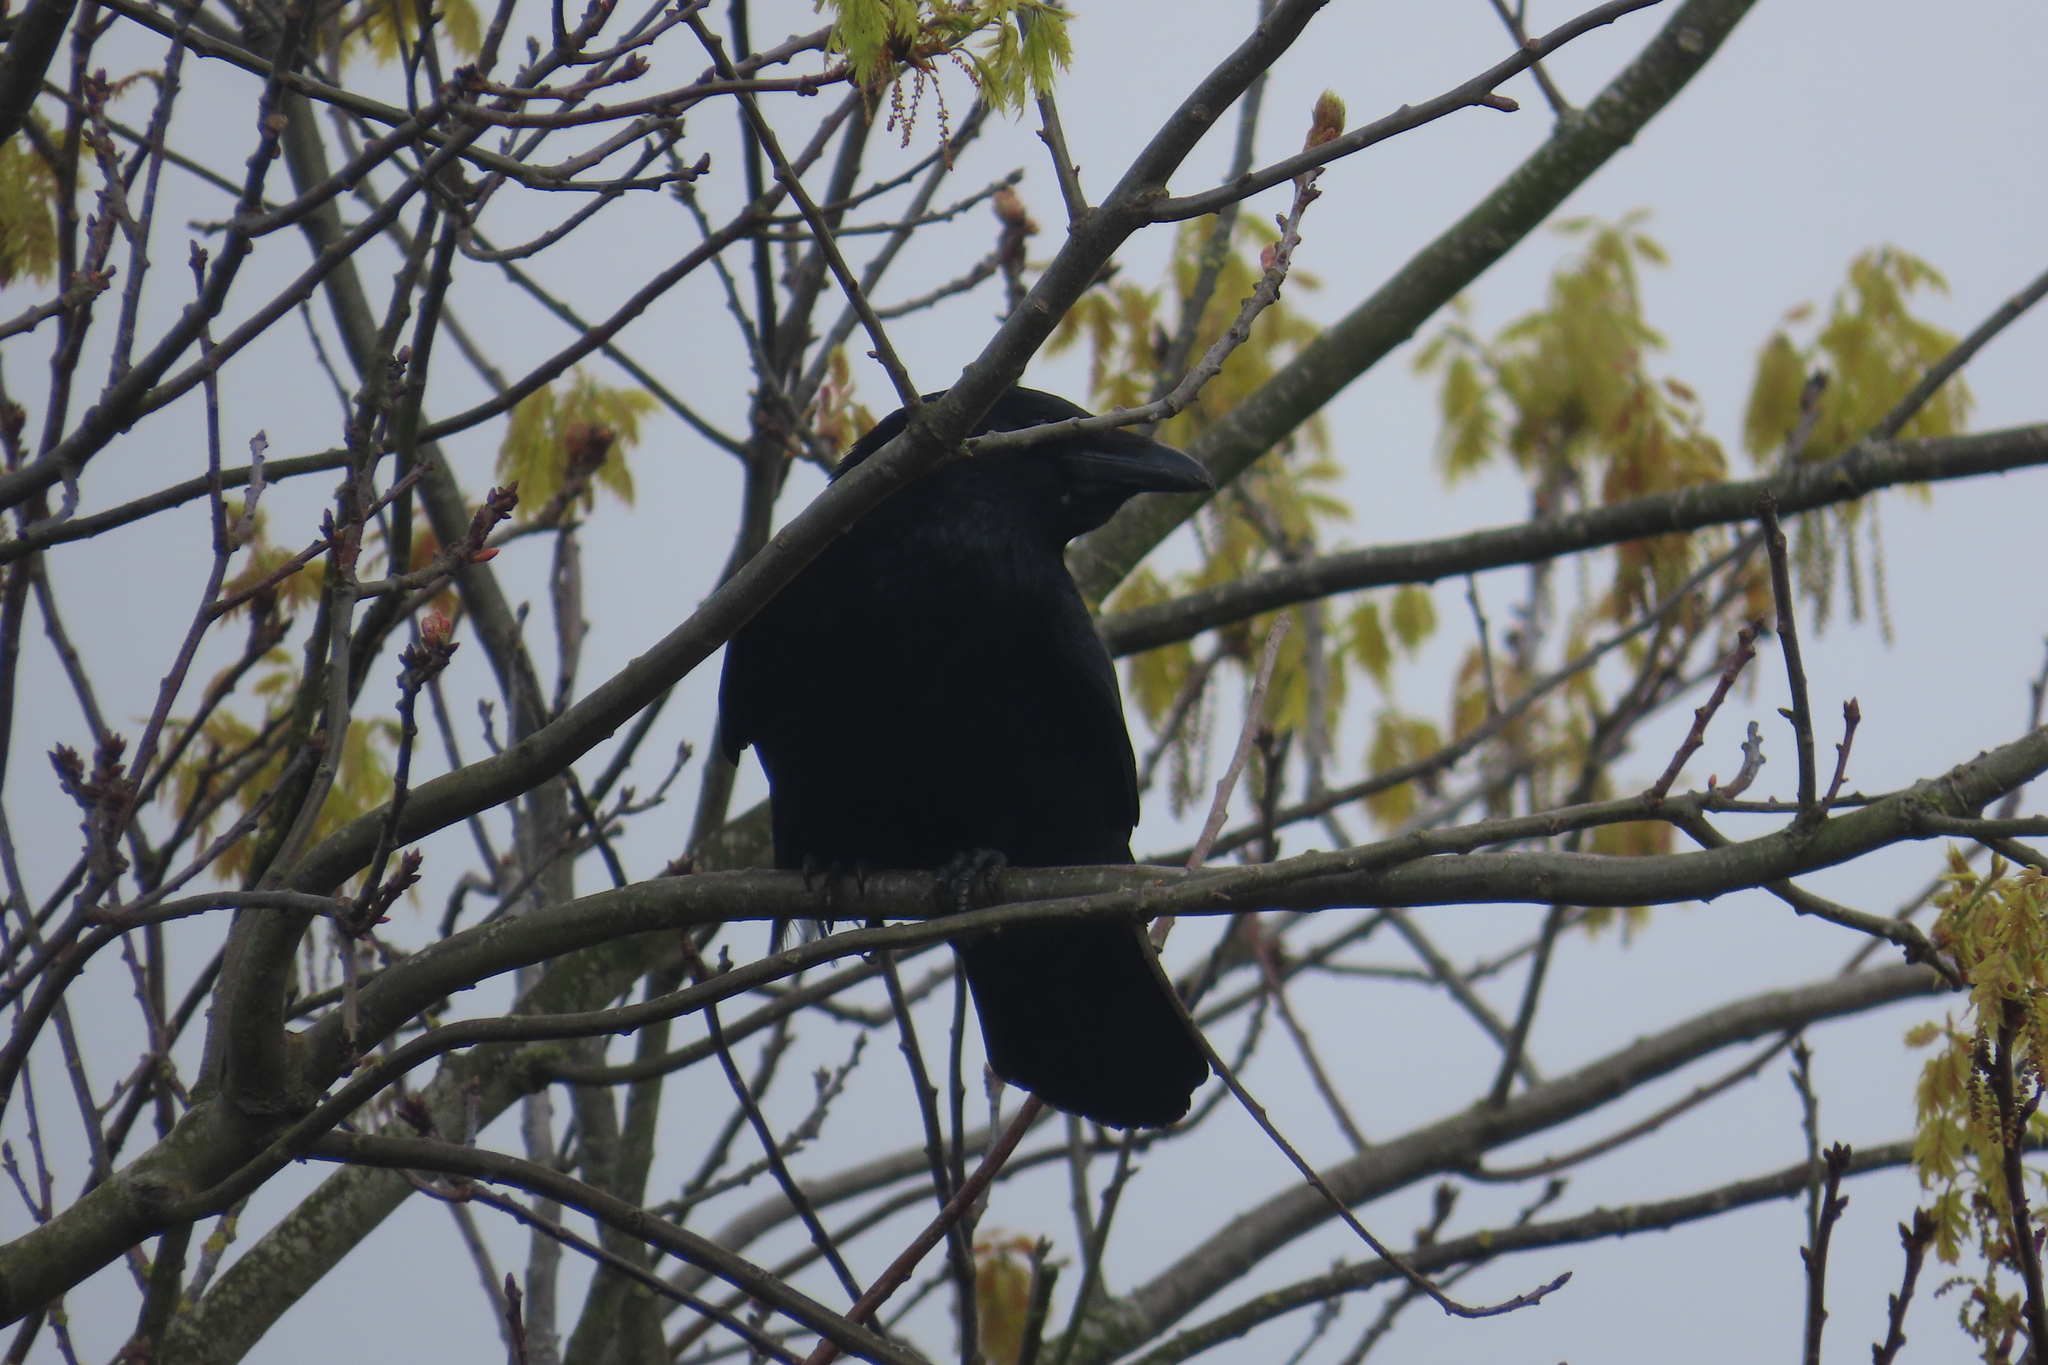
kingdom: Animalia
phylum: Chordata
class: Aves
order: Passeriformes
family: Corvidae
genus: Corvus
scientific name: Corvus corone
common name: Carrion crow
